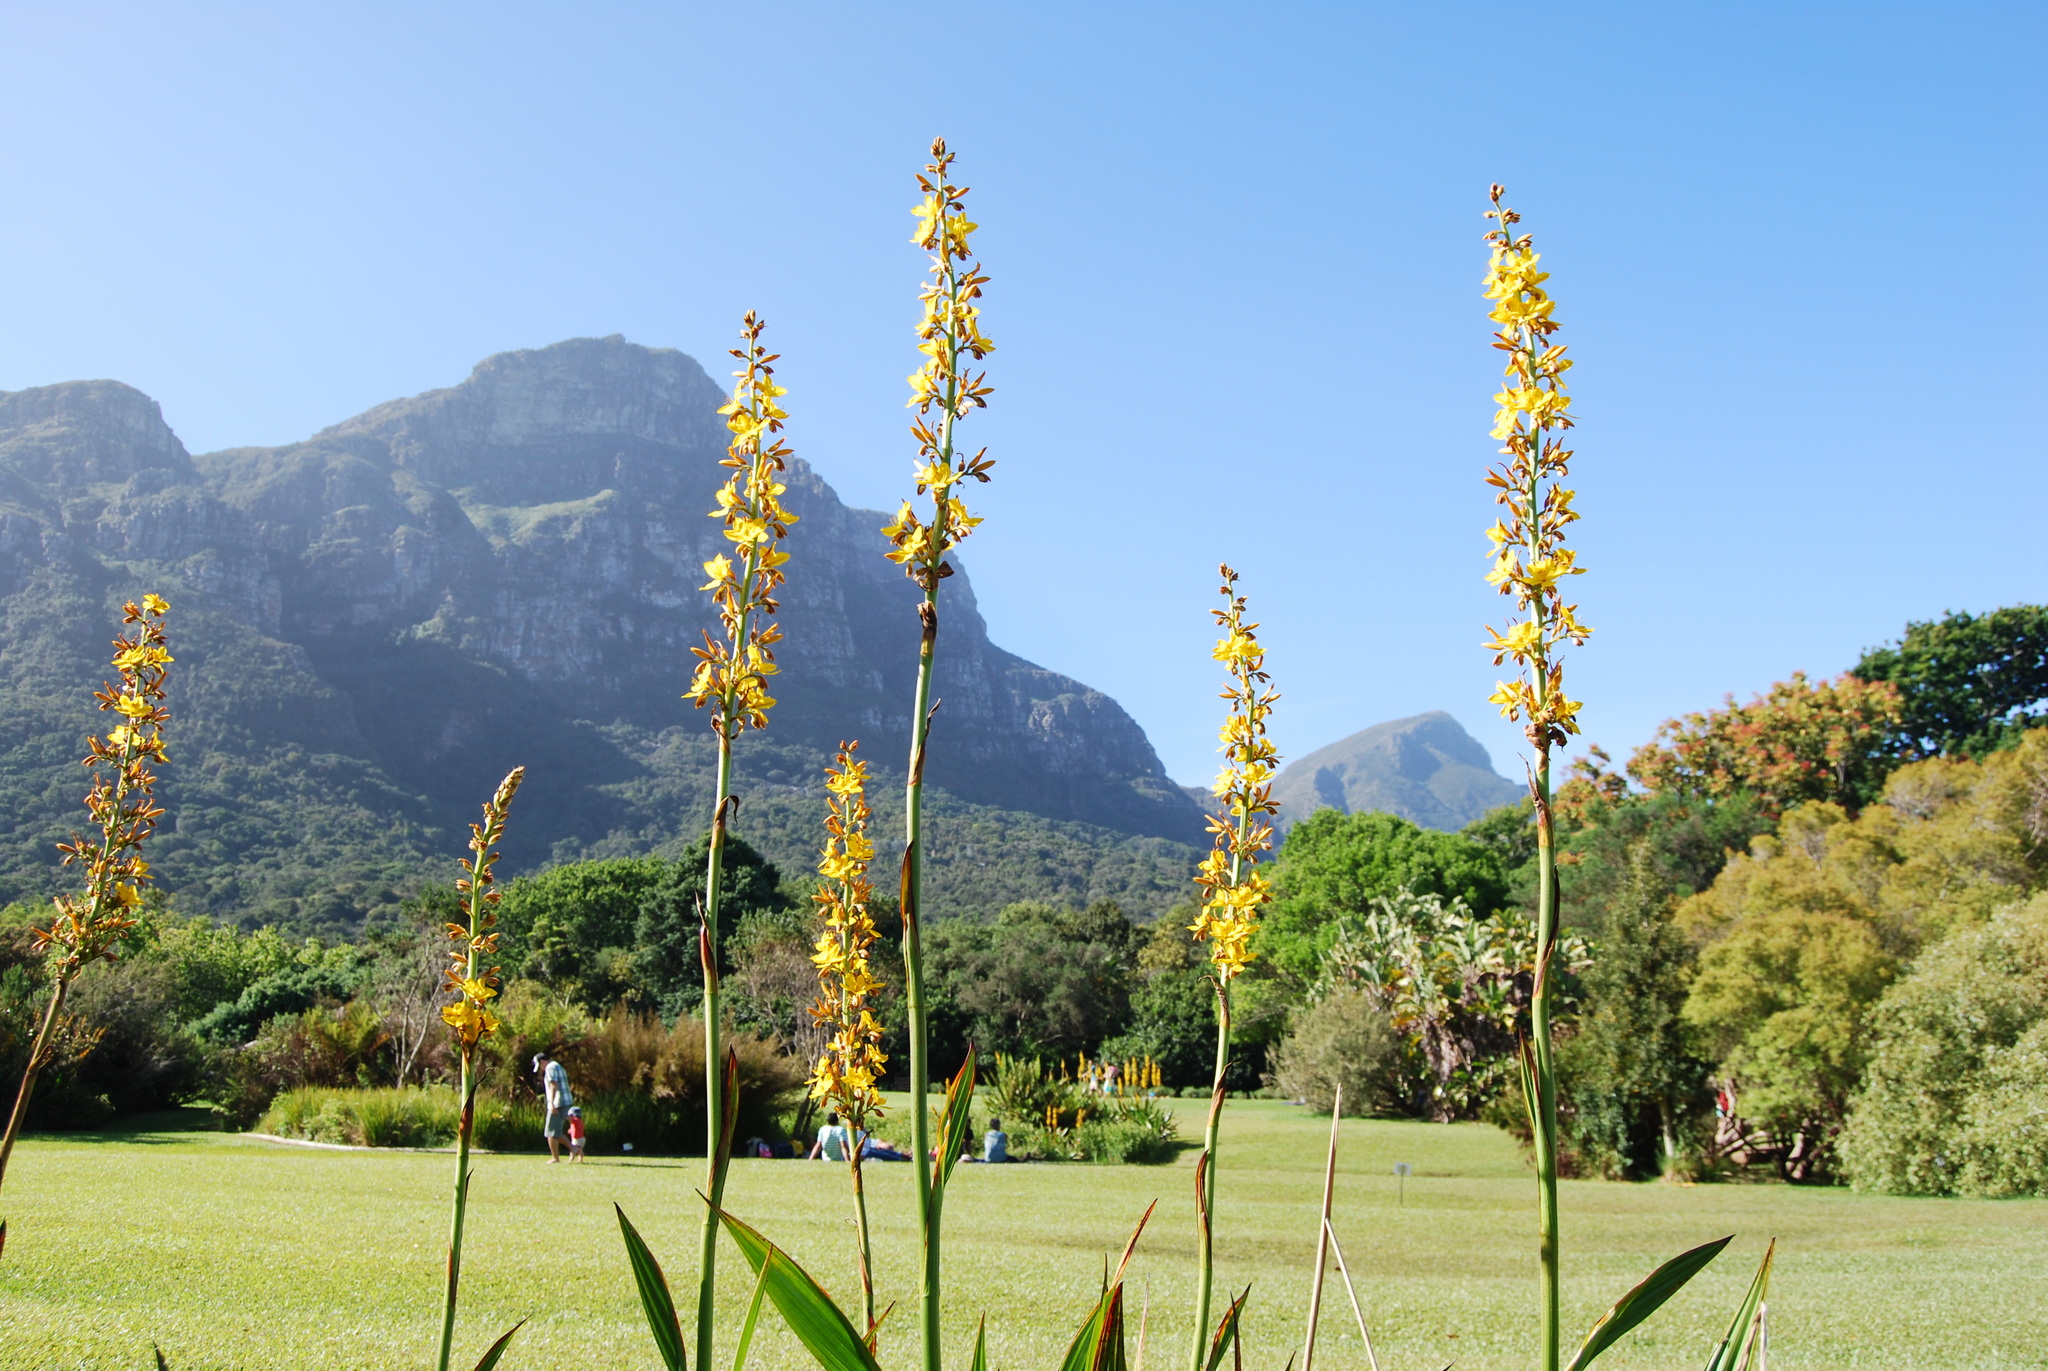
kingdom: Plantae
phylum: Tracheophyta
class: Liliopsida
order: Commelinales
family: Haemodoraceae
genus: Wachendorfia
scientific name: Wachendorfia thyrsiflora
